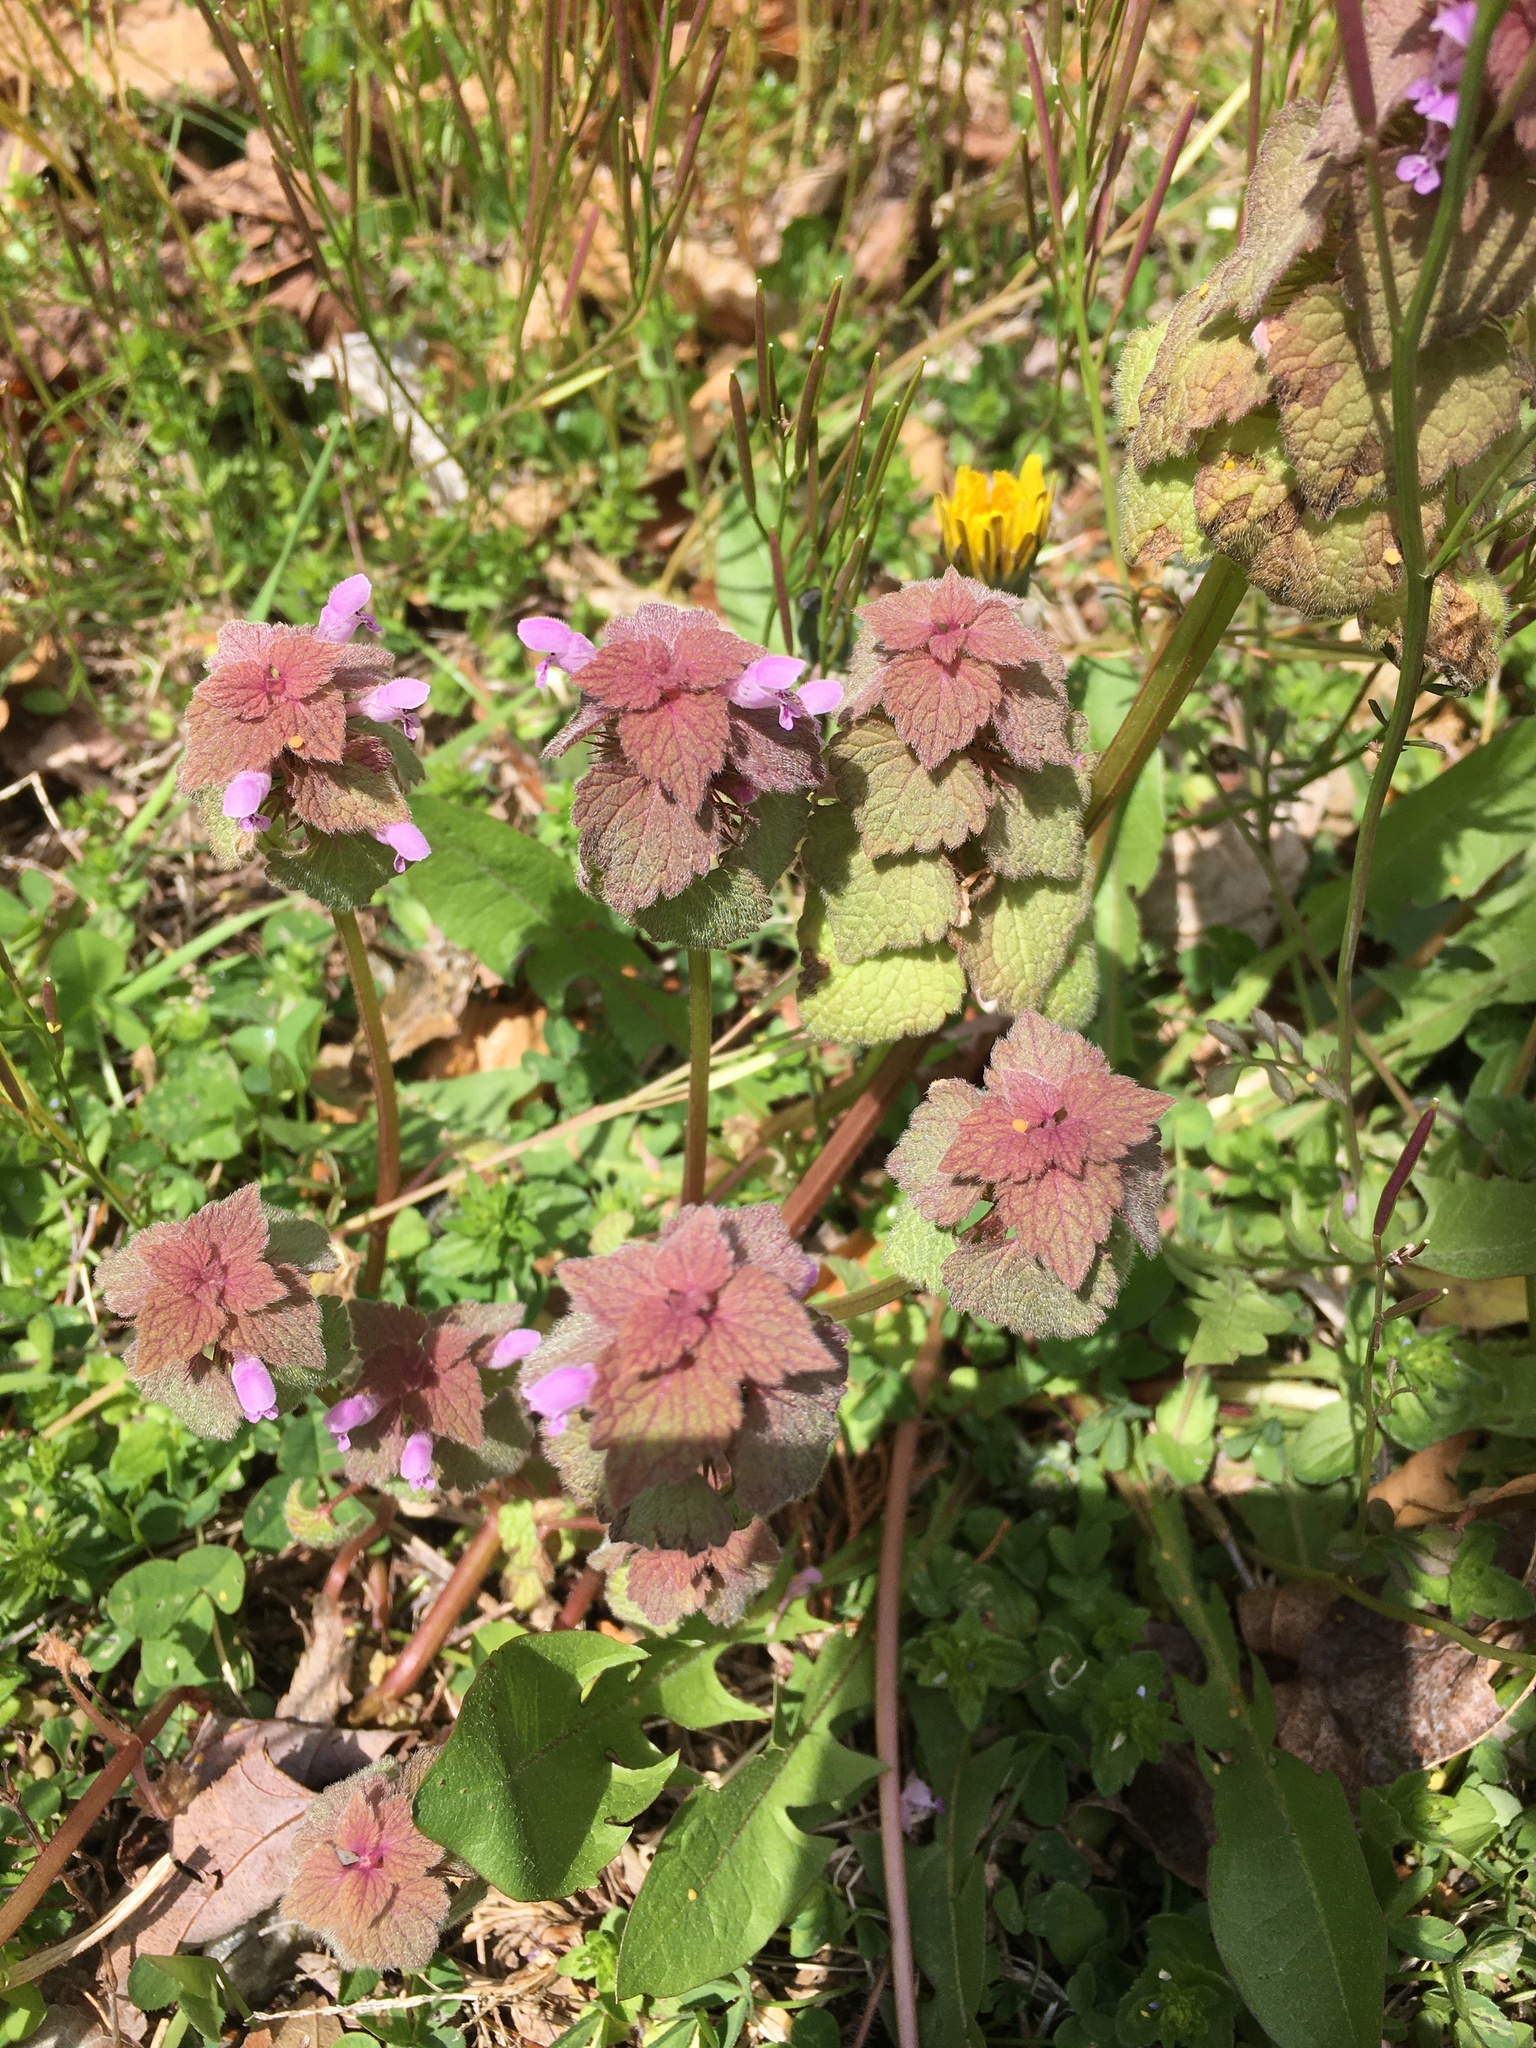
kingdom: Plantae
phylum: Tracheophyta
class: Magnoliopsida
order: Lamiales
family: Lamiaceae
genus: Lamium
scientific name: Lamium purpureum
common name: Red dead-nettle
